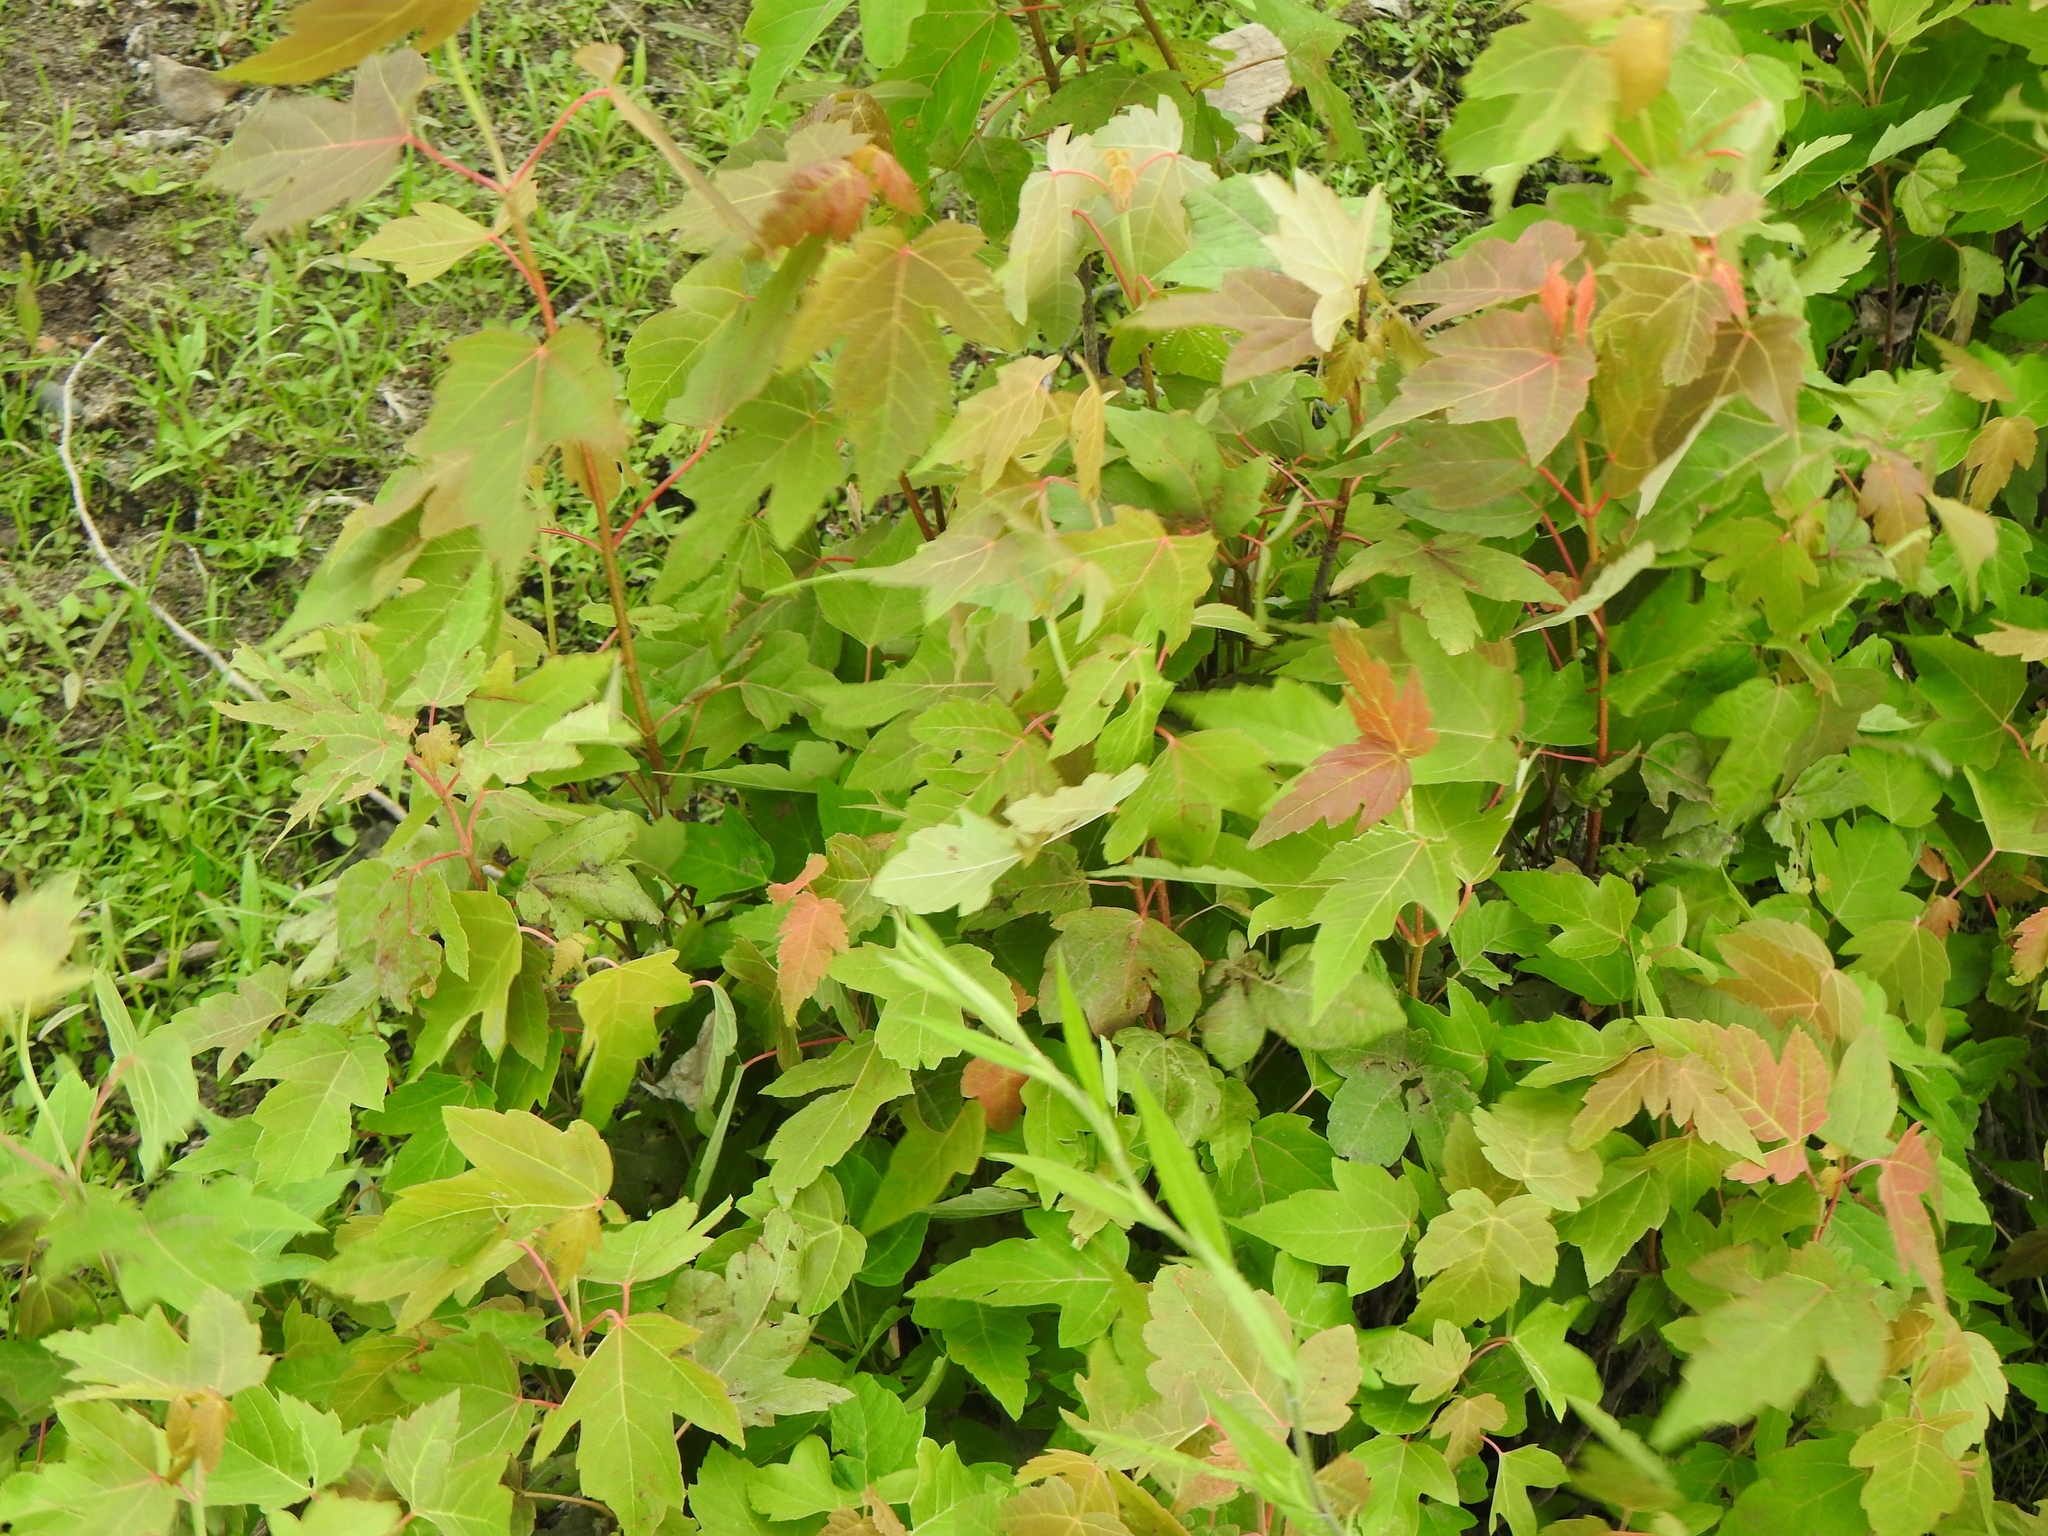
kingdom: Plantae
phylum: Tracheophyta
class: Magnoliopsida
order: Sapindales
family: Sapindaceae
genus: Acer
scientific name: Acer tataricum
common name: Tartar maple
